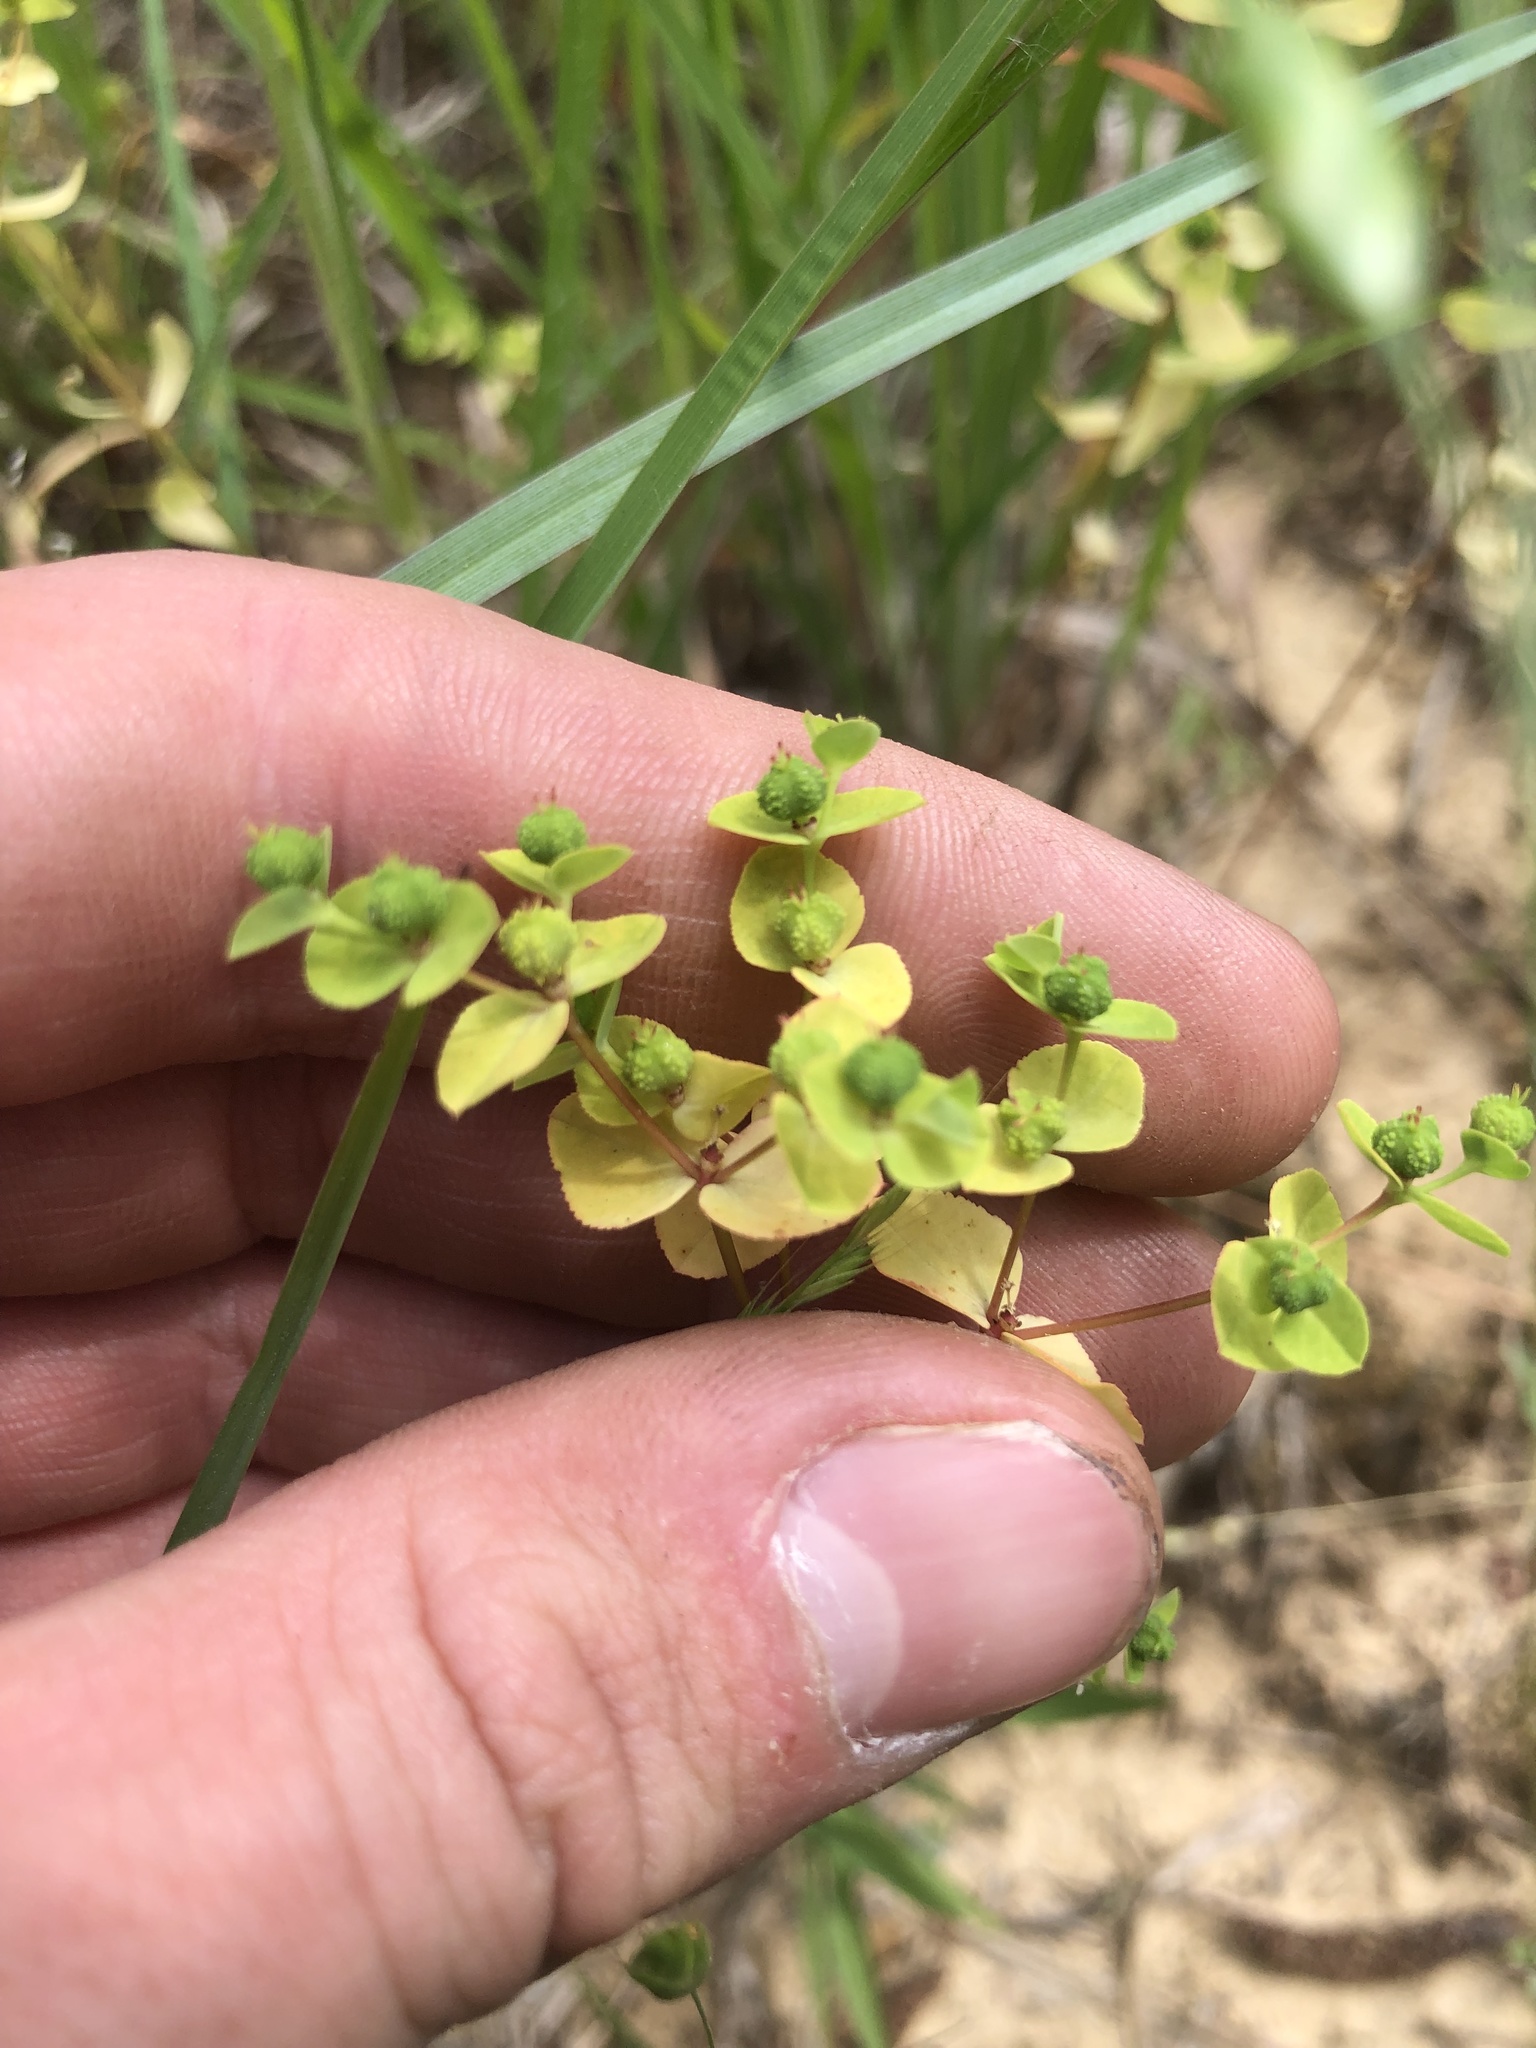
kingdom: Plantae
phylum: Tracheophyta
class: Magnoliopsida
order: Malpighiales
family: Euphorbiaceae
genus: Euphorbia
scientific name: Euphorbia spathulata
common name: Blunt spurge
